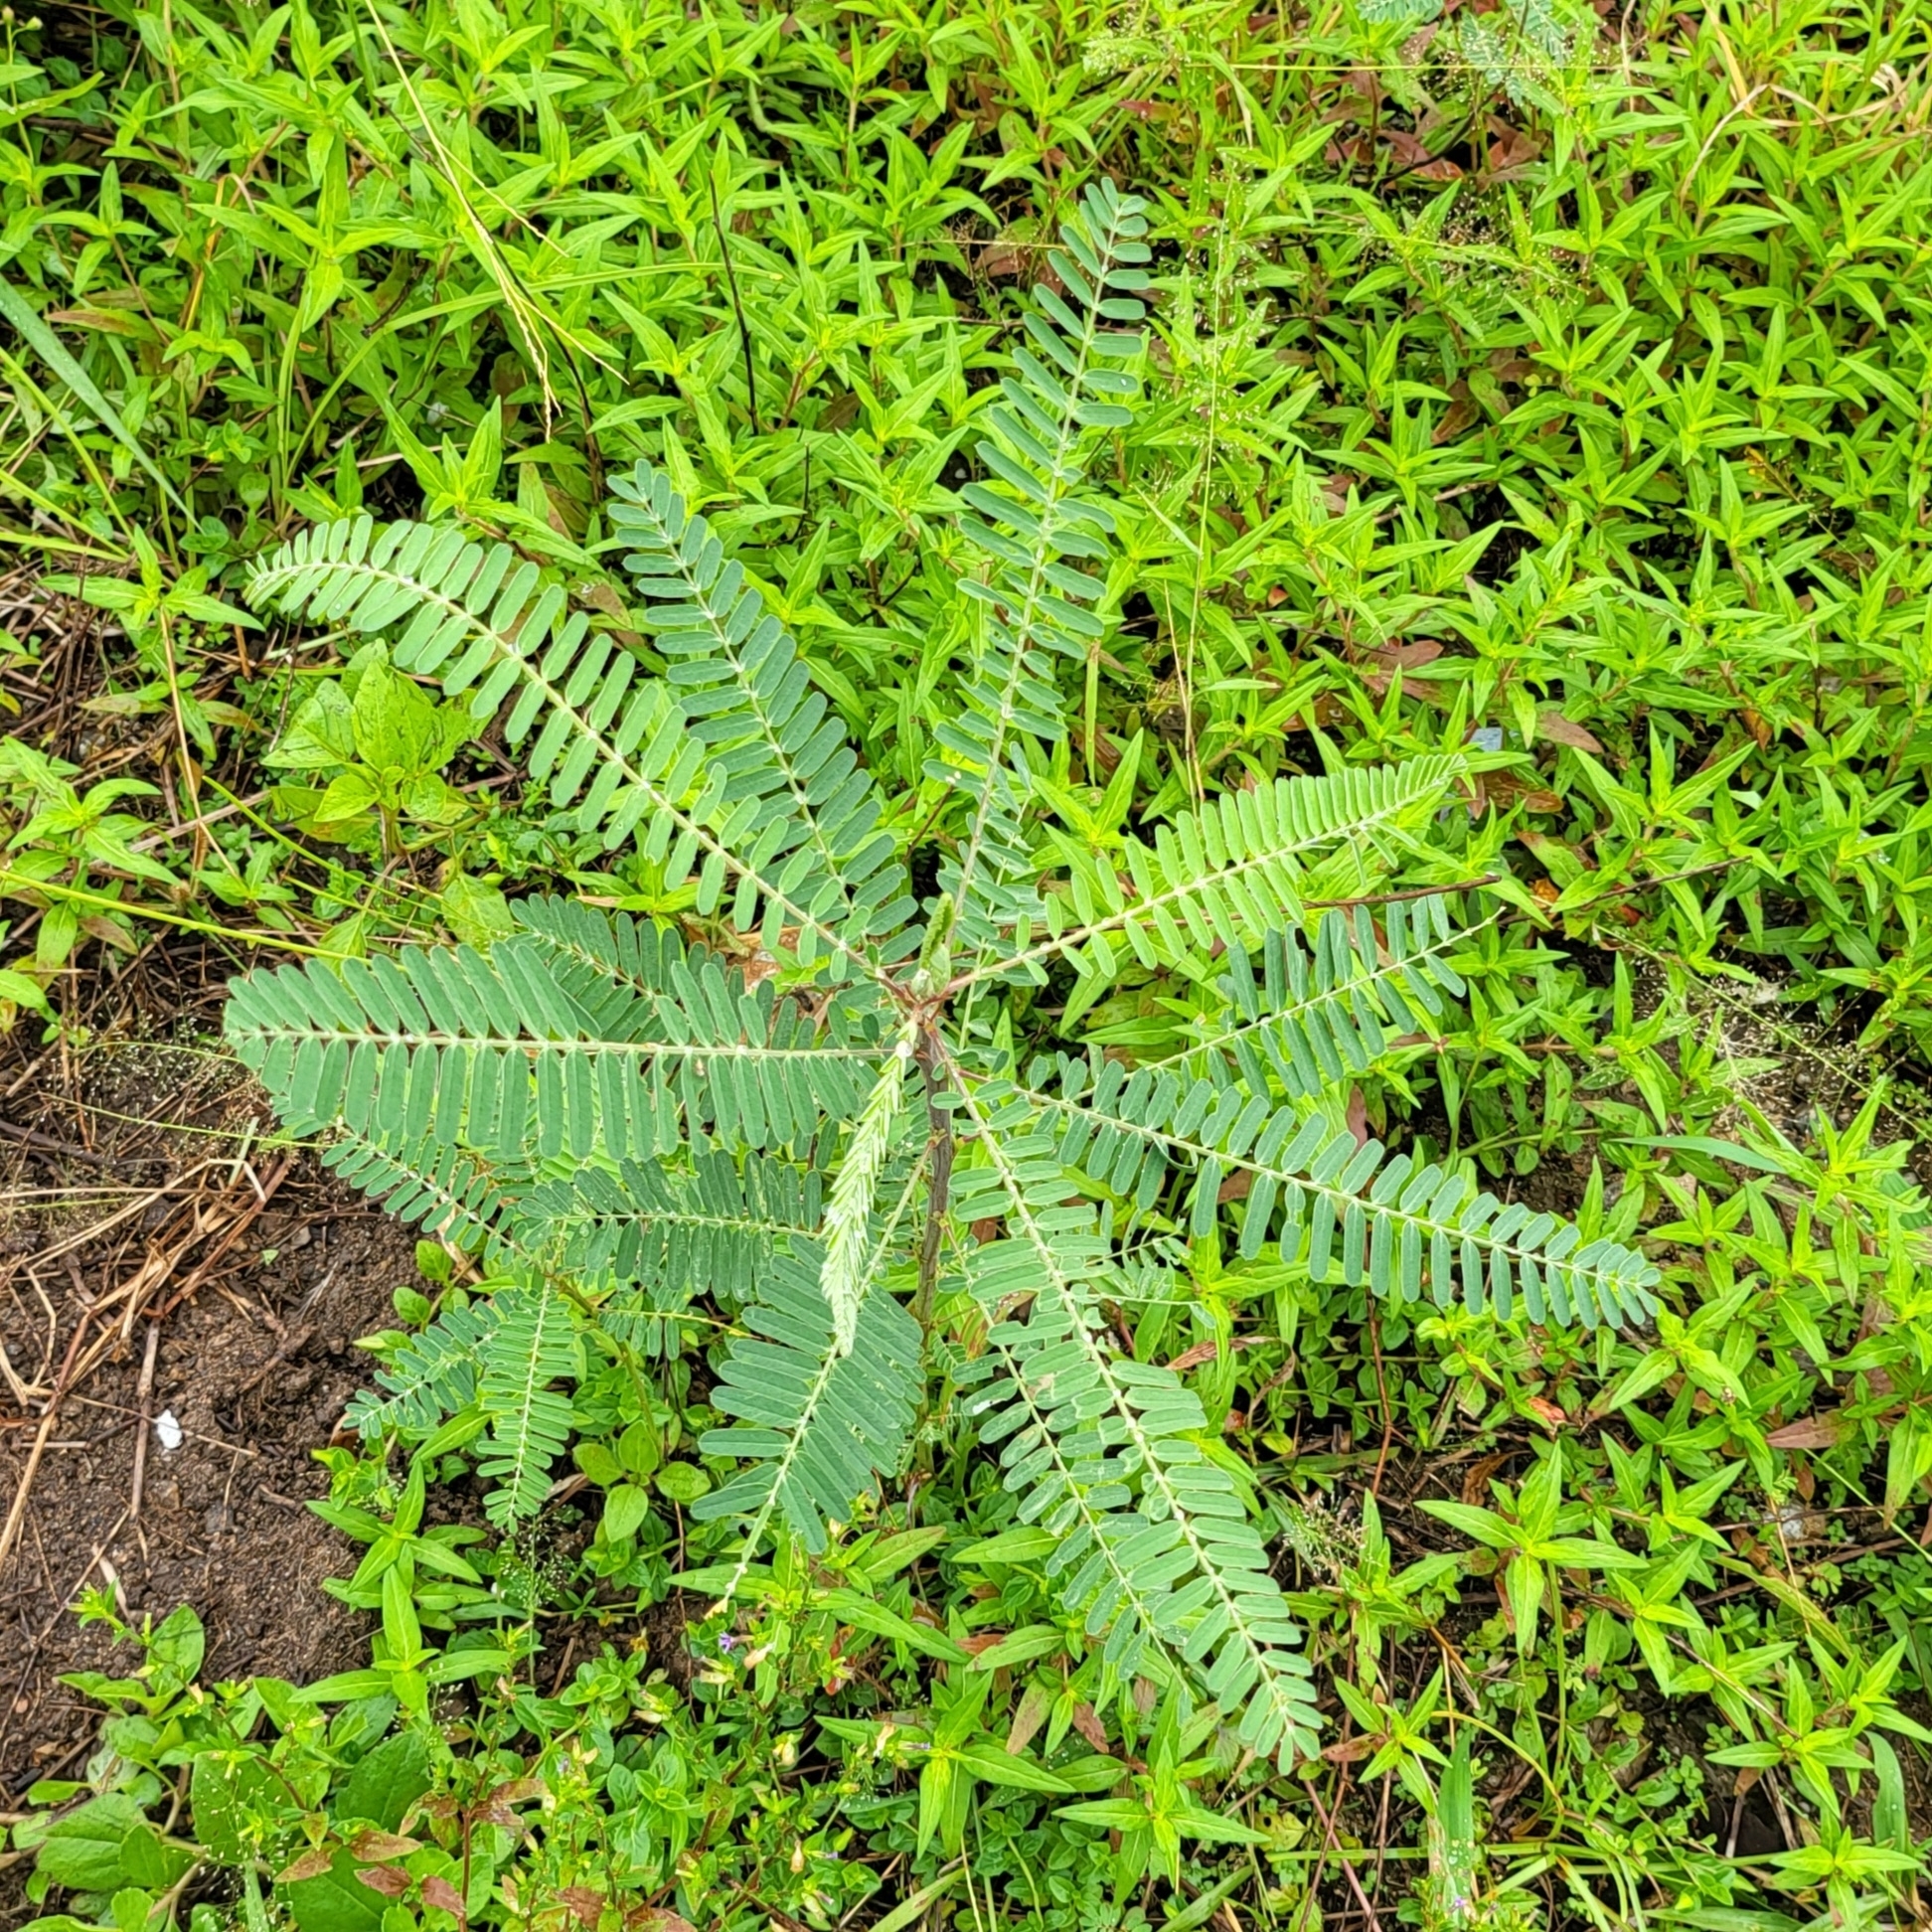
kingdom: Plantae
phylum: Tracheophyta
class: Magnoliopsida
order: Fabales
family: Fabaceae
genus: Sesbania
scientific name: Sesbania cannabina
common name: Canicha
